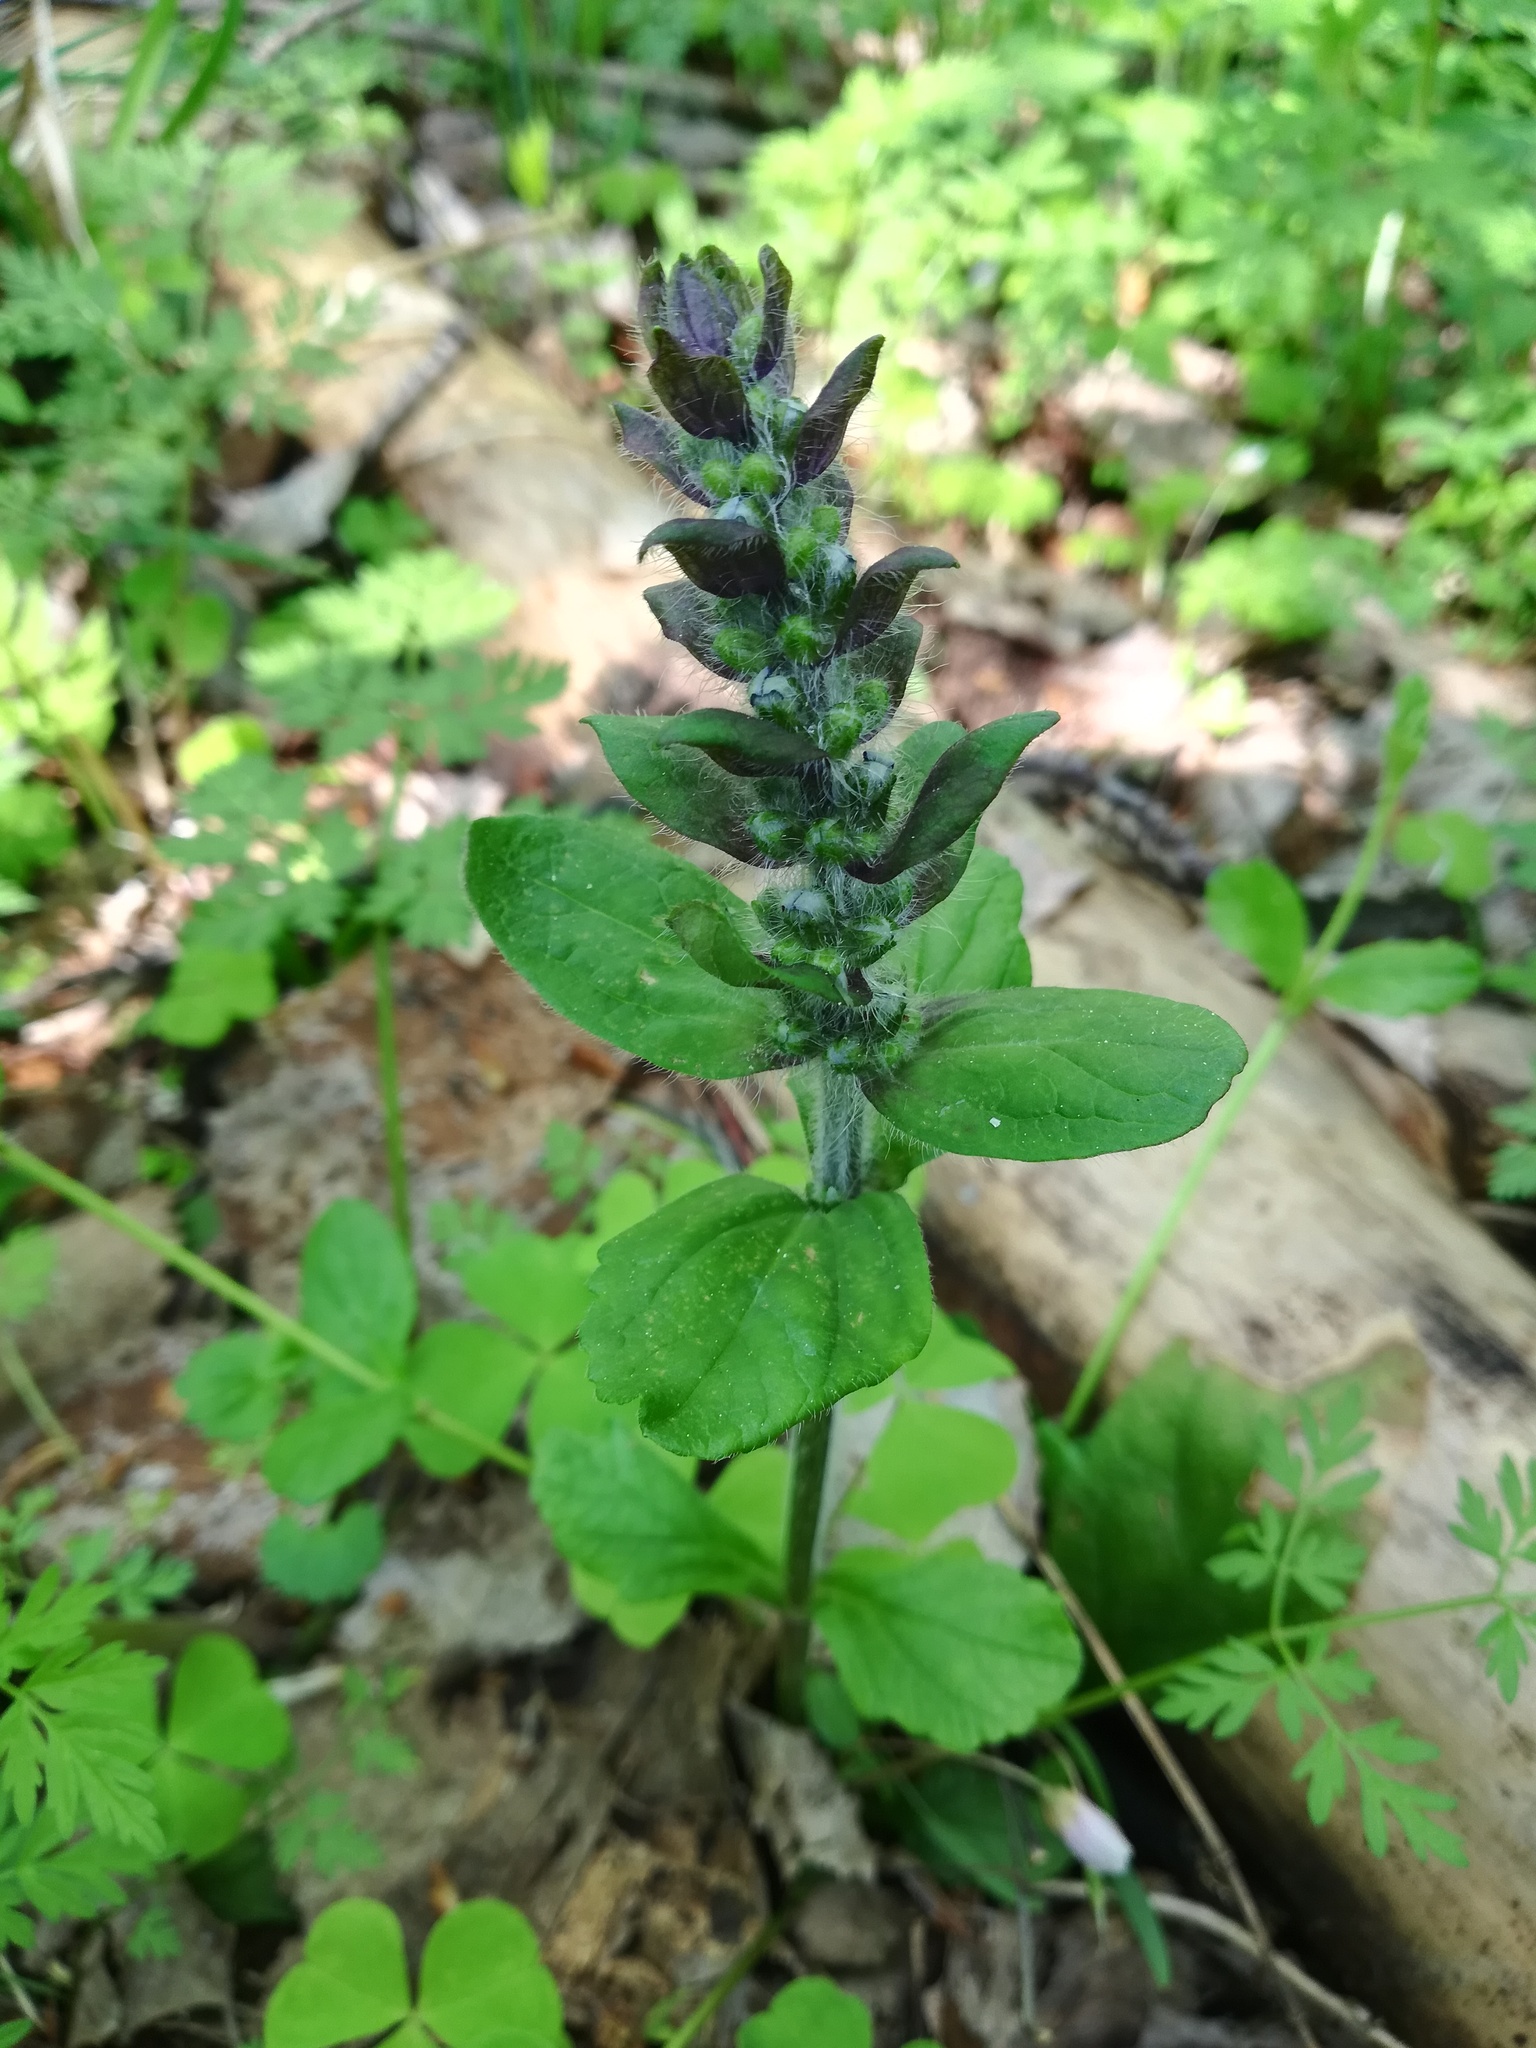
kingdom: Plantae
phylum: Tracheophyta
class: Magnoliopsida
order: Lamiales
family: Lamiaceae
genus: Ajuga
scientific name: Ajuga reptans
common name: Bugle
